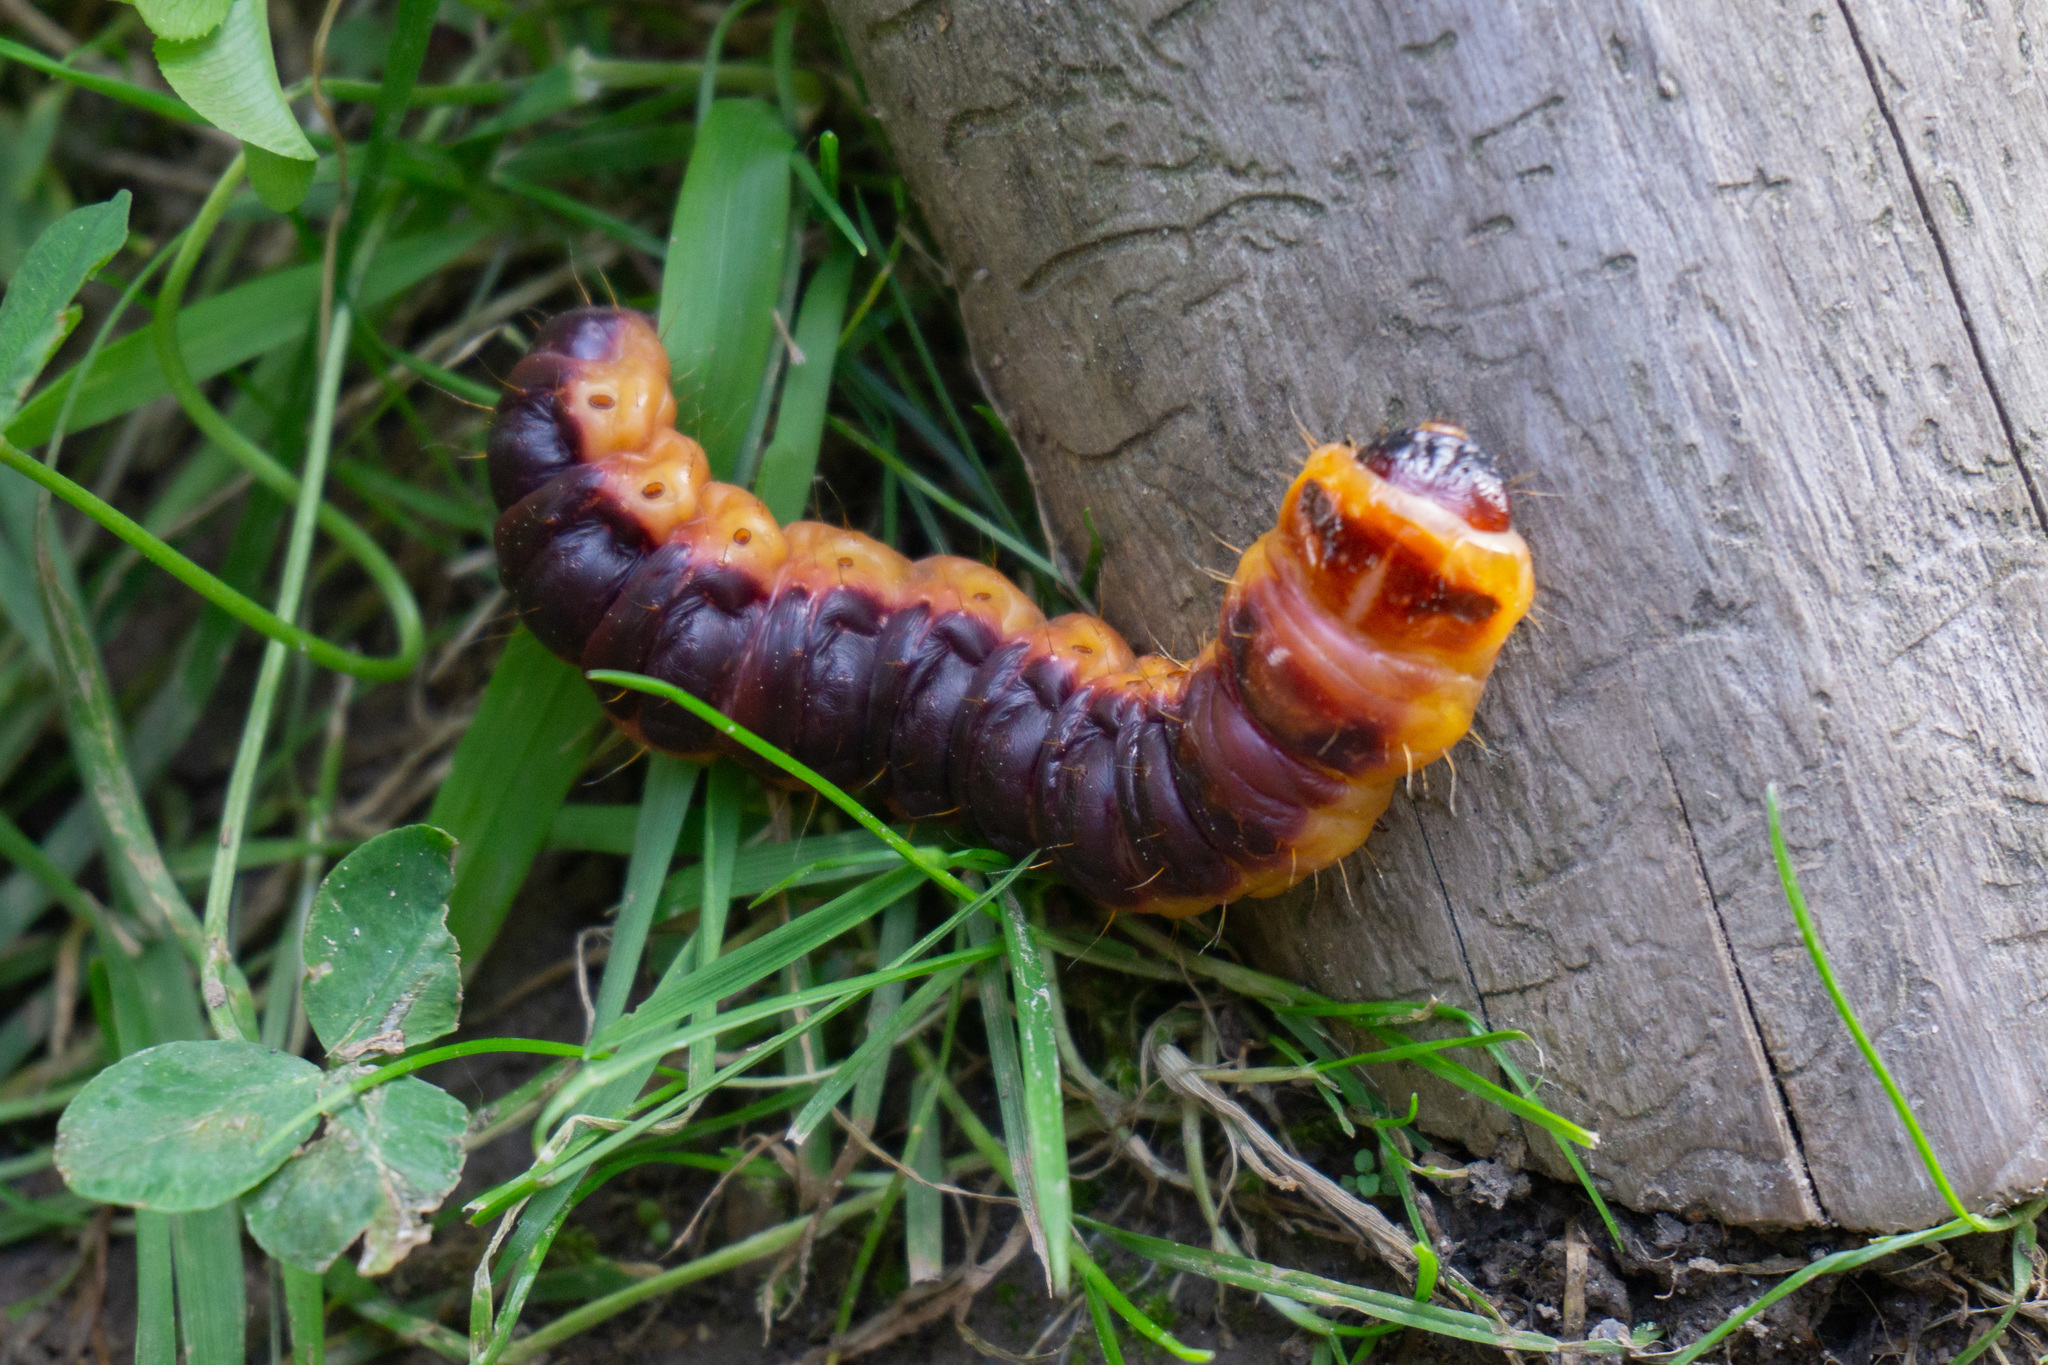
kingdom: Animalia
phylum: Arthropoda
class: Insecta
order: Lepidoptera
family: Cossidae
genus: Cossus
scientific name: Cossus cossus
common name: Goat moth
